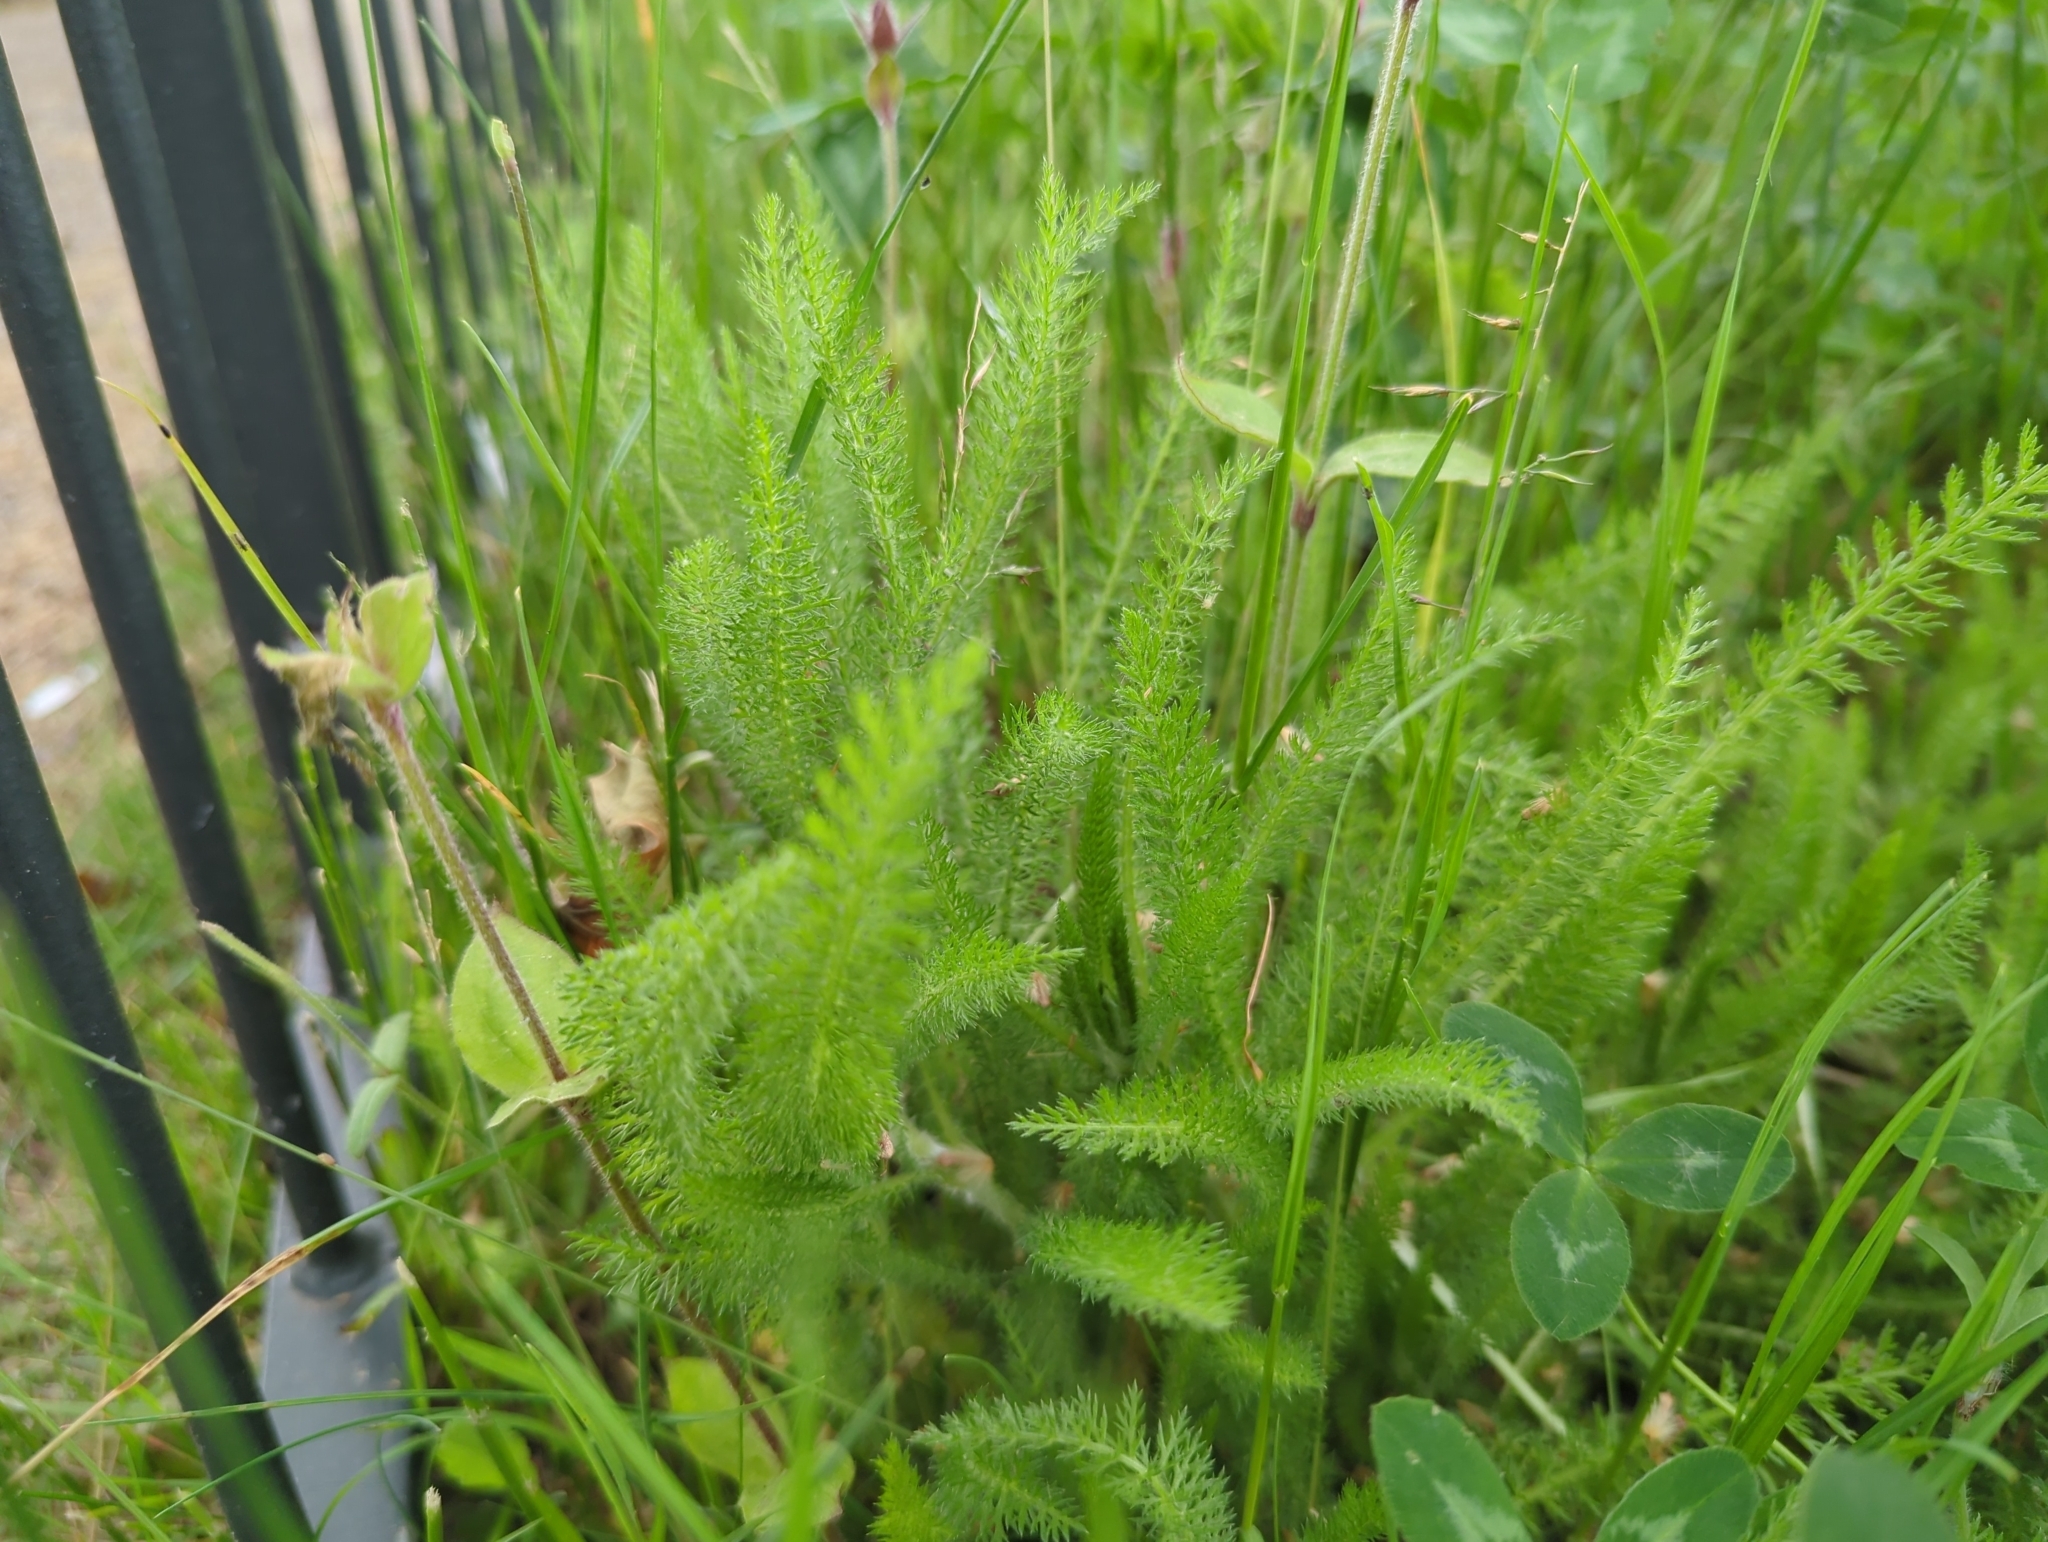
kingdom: Plantae
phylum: Tracheophyta
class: Magnoliopsida
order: Asterales
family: Asteraceae
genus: Achillea
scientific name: Achillea millefolium
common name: Yarrow
